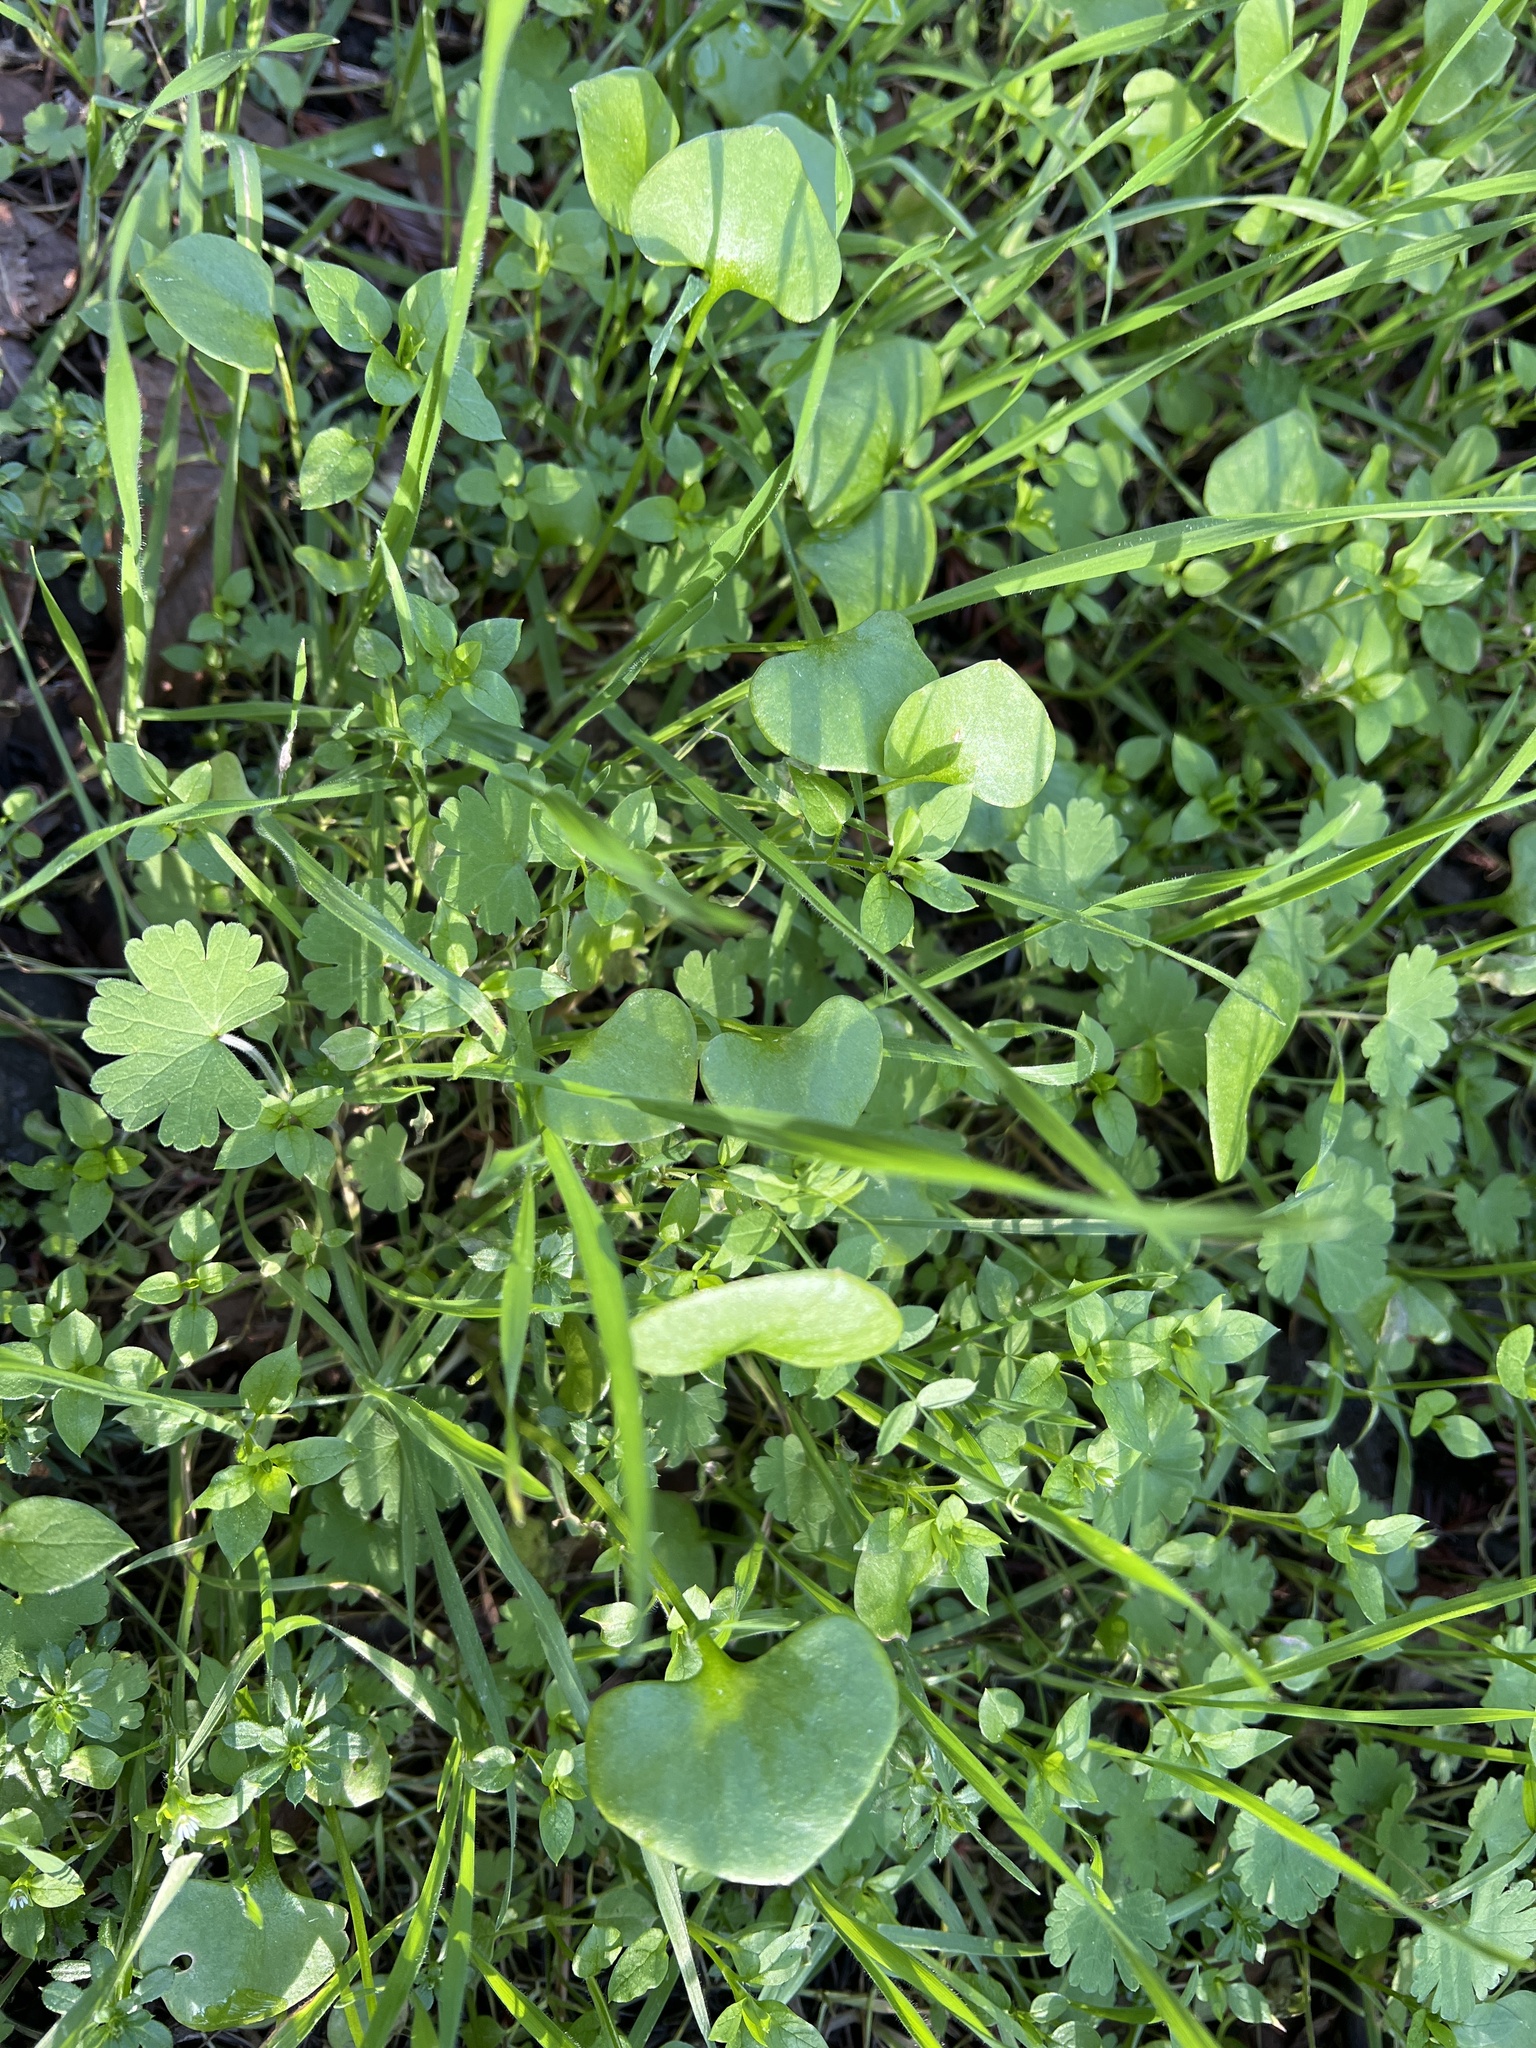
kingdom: Plantae
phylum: Tracheophyta
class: Magnoliopsida
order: Caryophyllales
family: Montiaceae
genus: Claytonia
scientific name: Claytonia perfoliata
